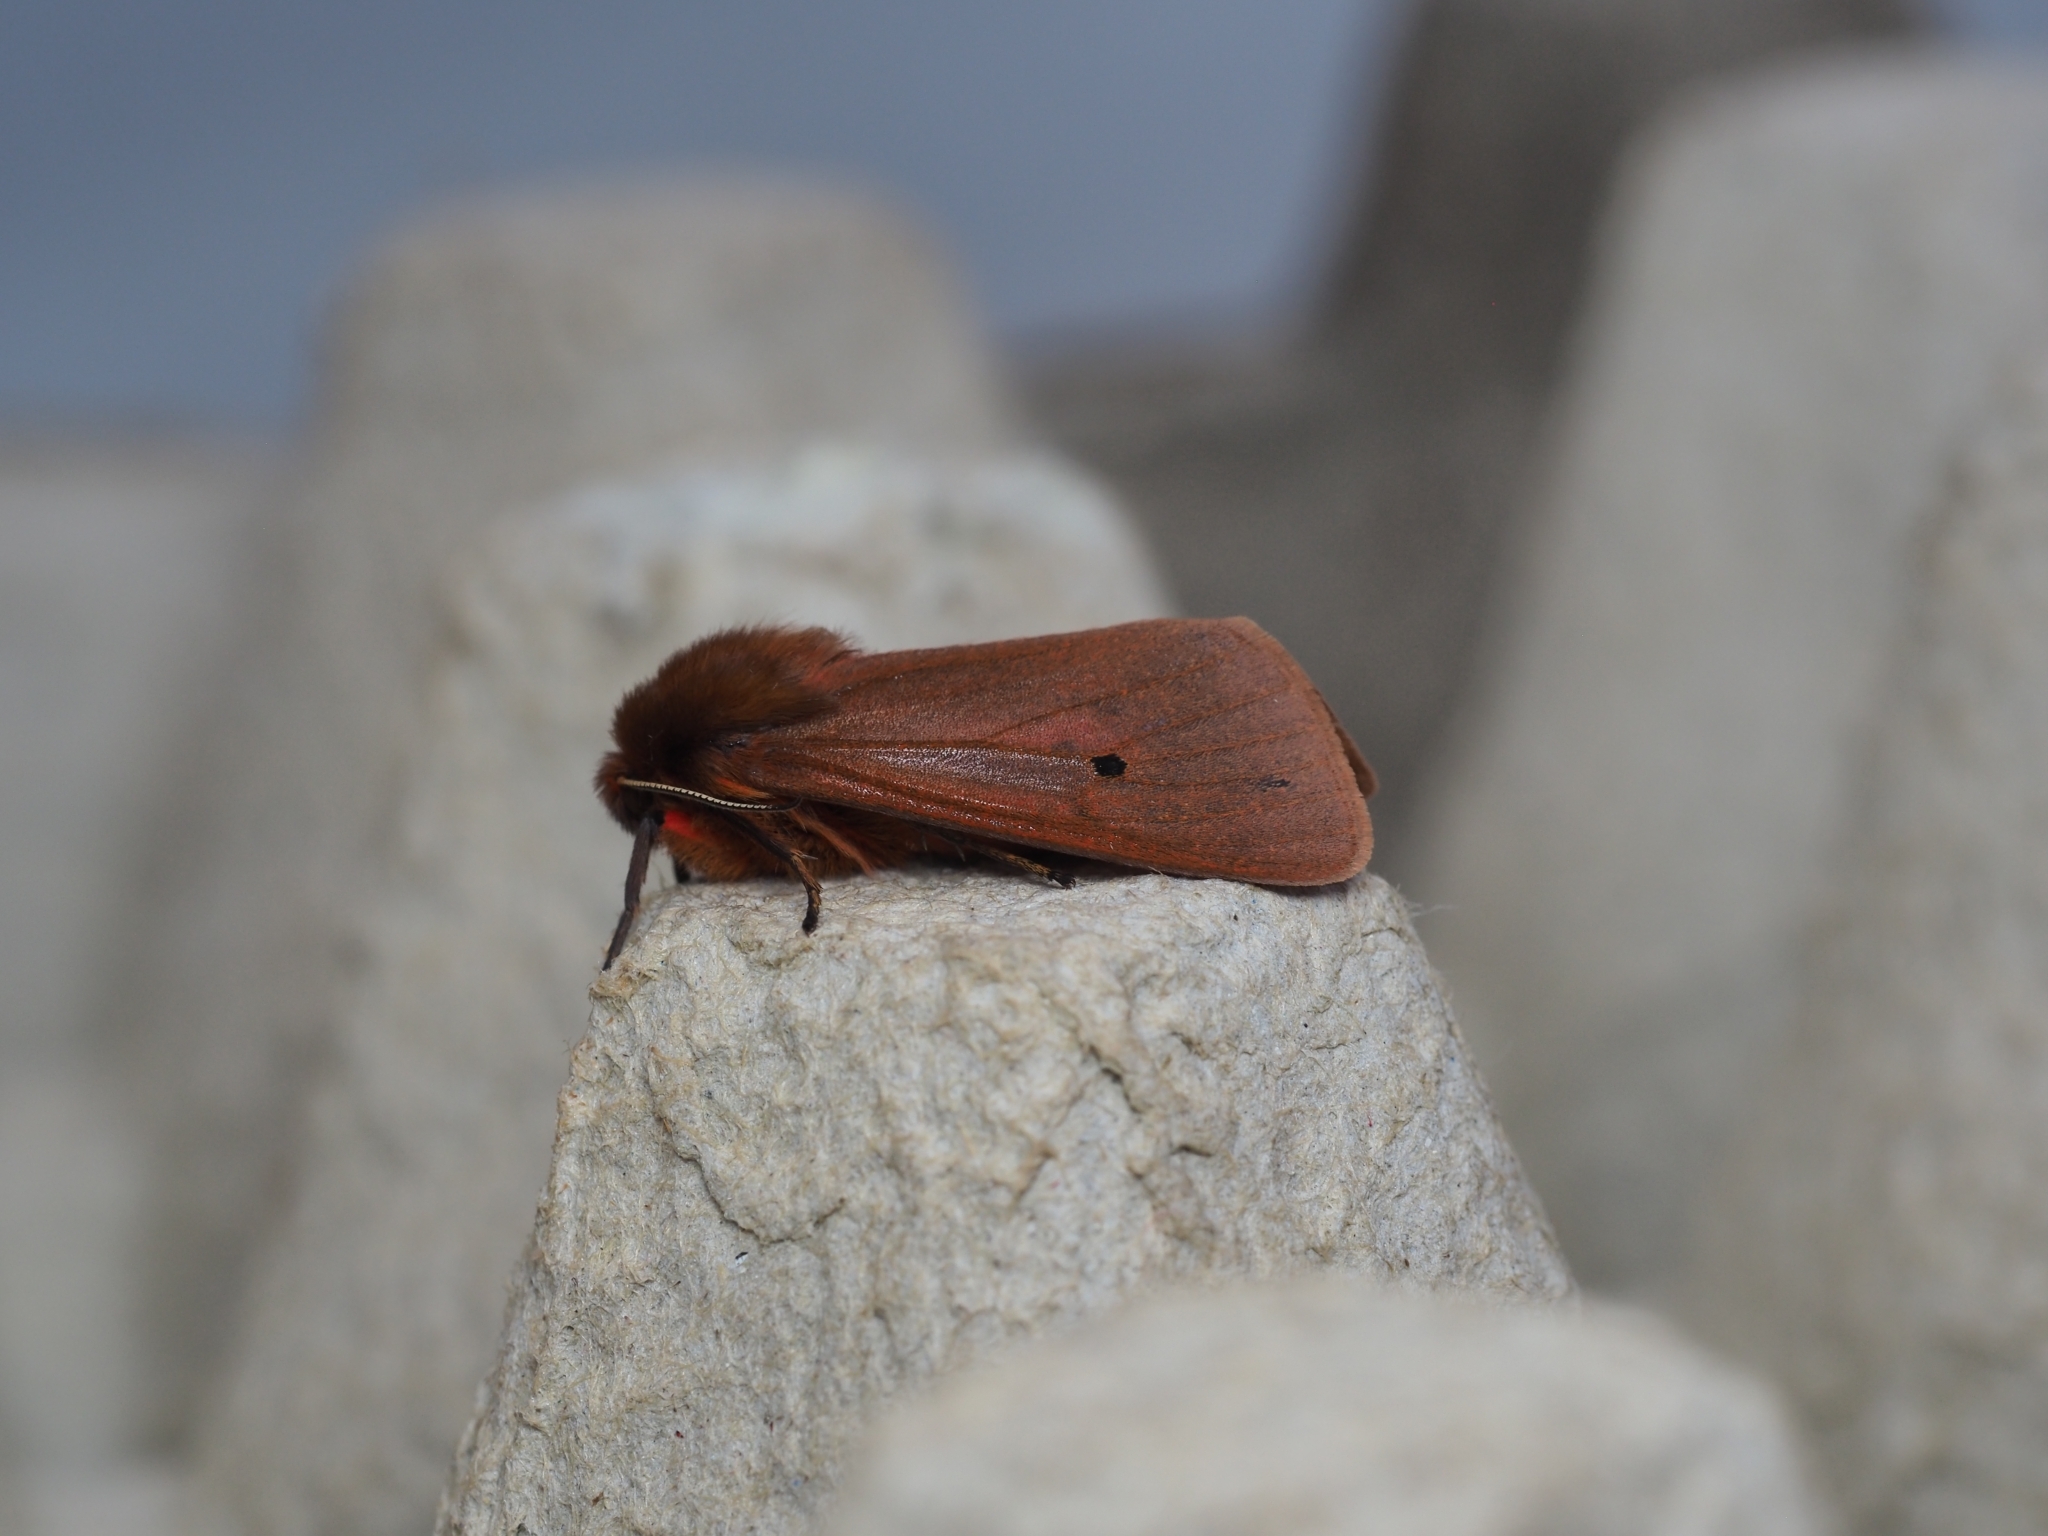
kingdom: Animalia
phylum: Arthropoda
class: Insecta
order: Lepidoptera
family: Erebidae
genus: Phragmatobia
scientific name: Phragmatobia fuliginosa
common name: Ruby tiger
